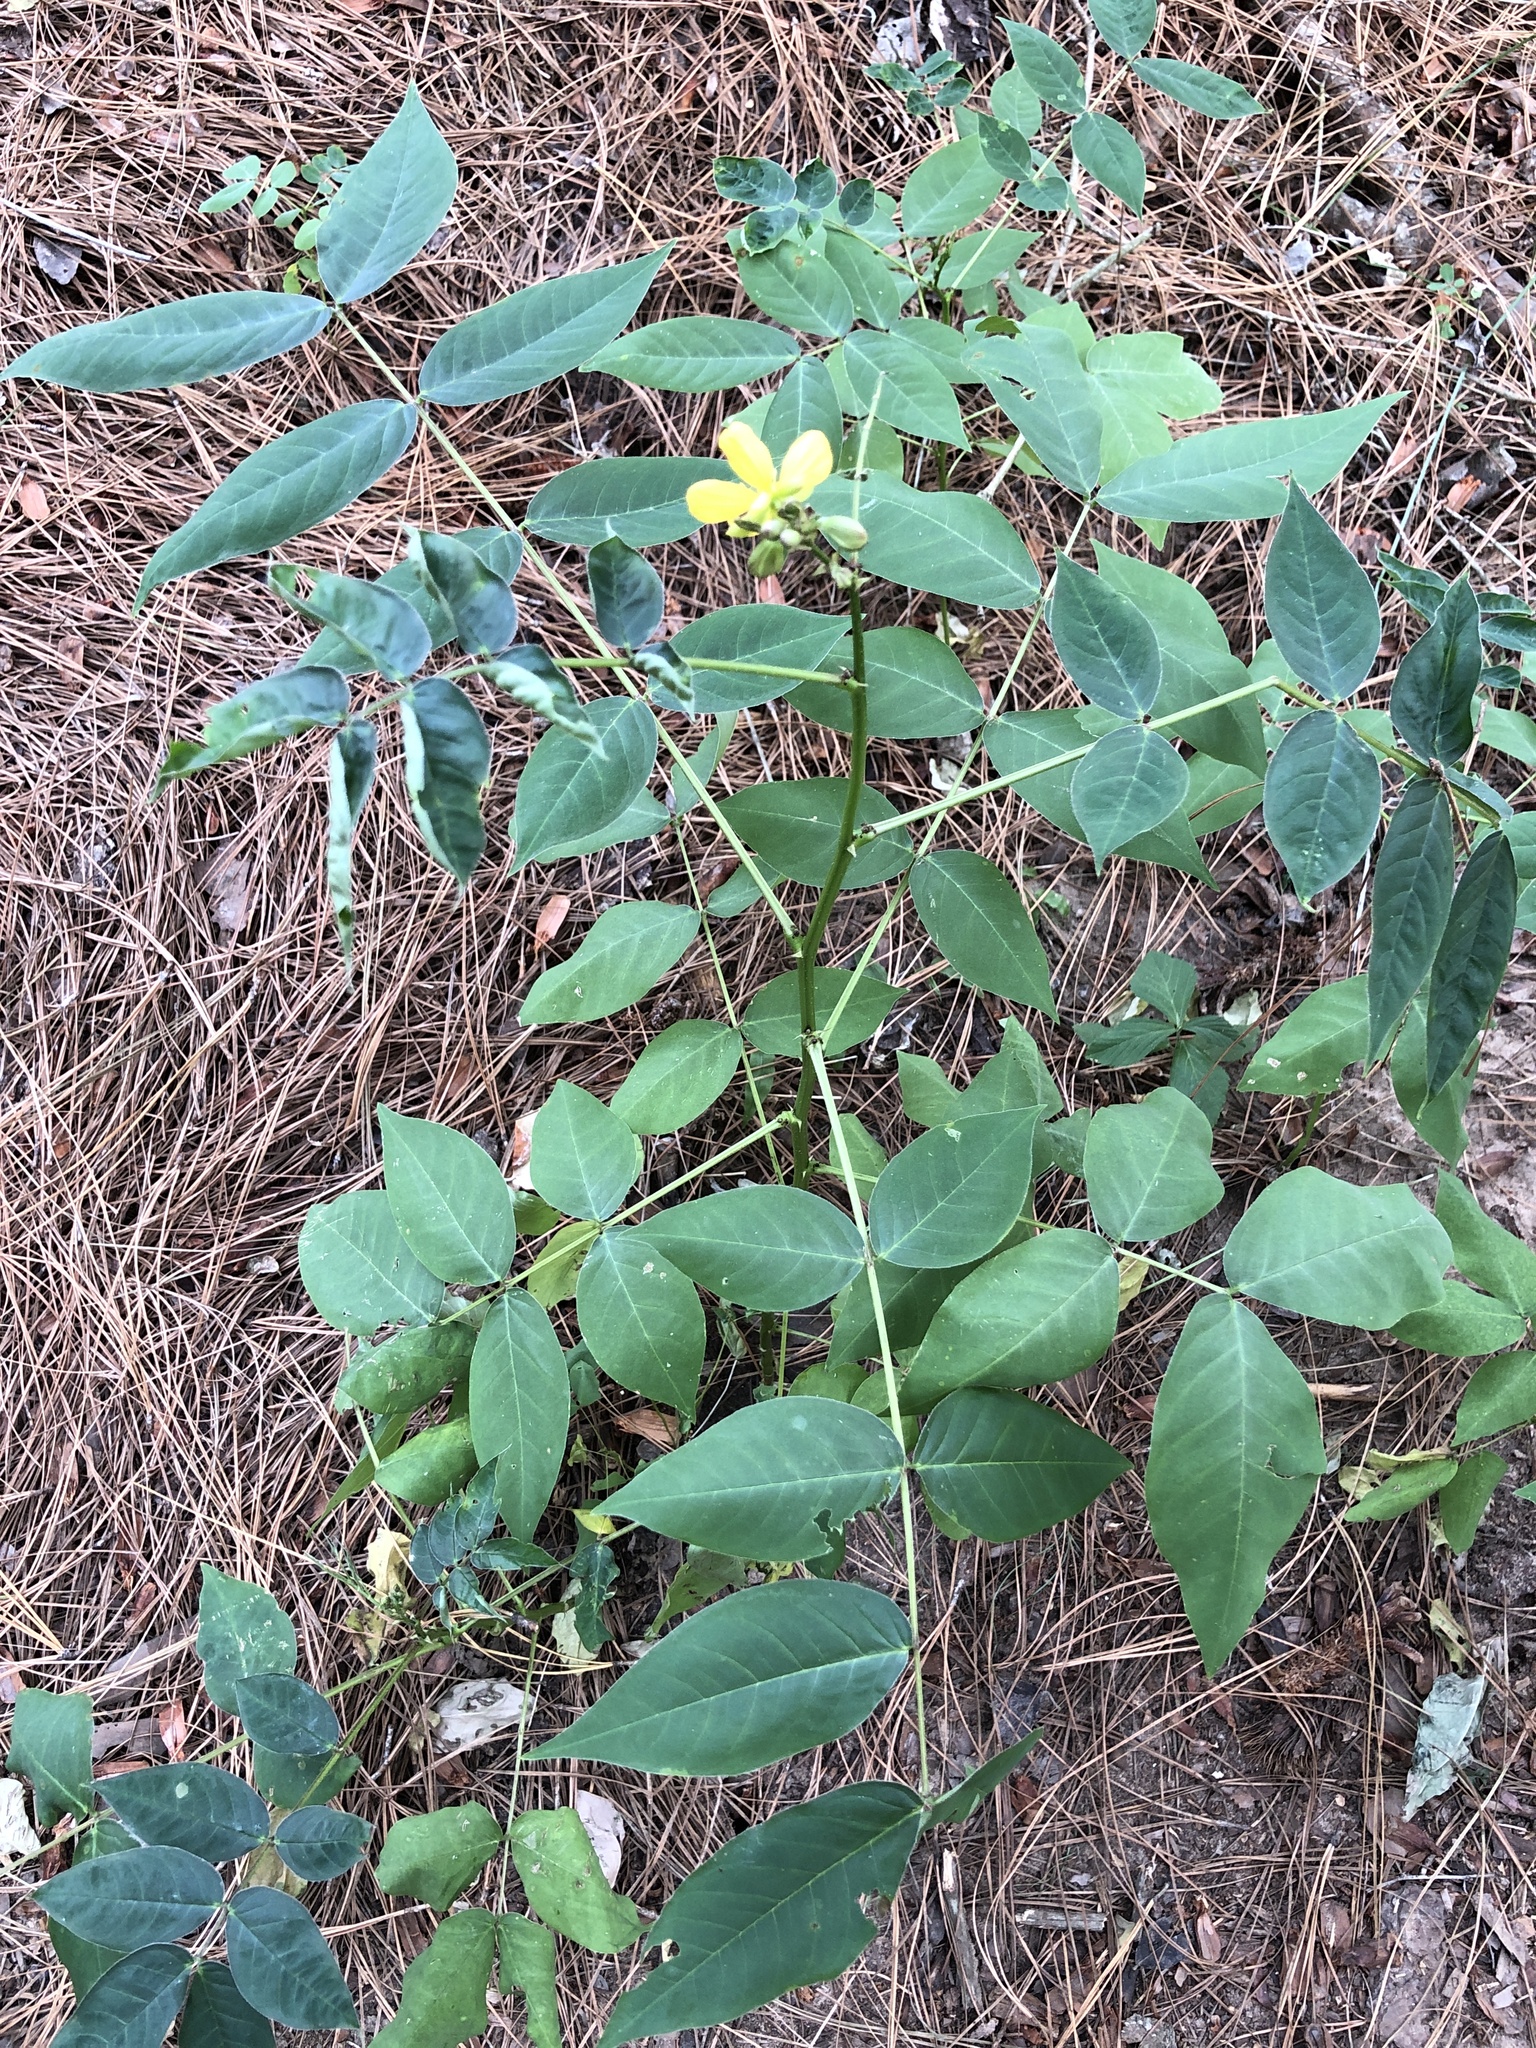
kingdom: Plantae
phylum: Tracheophyta
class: Magnoliopsida
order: Fabales
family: Fabaceae
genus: Senna
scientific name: Senna occidentalis
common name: Septicweed
